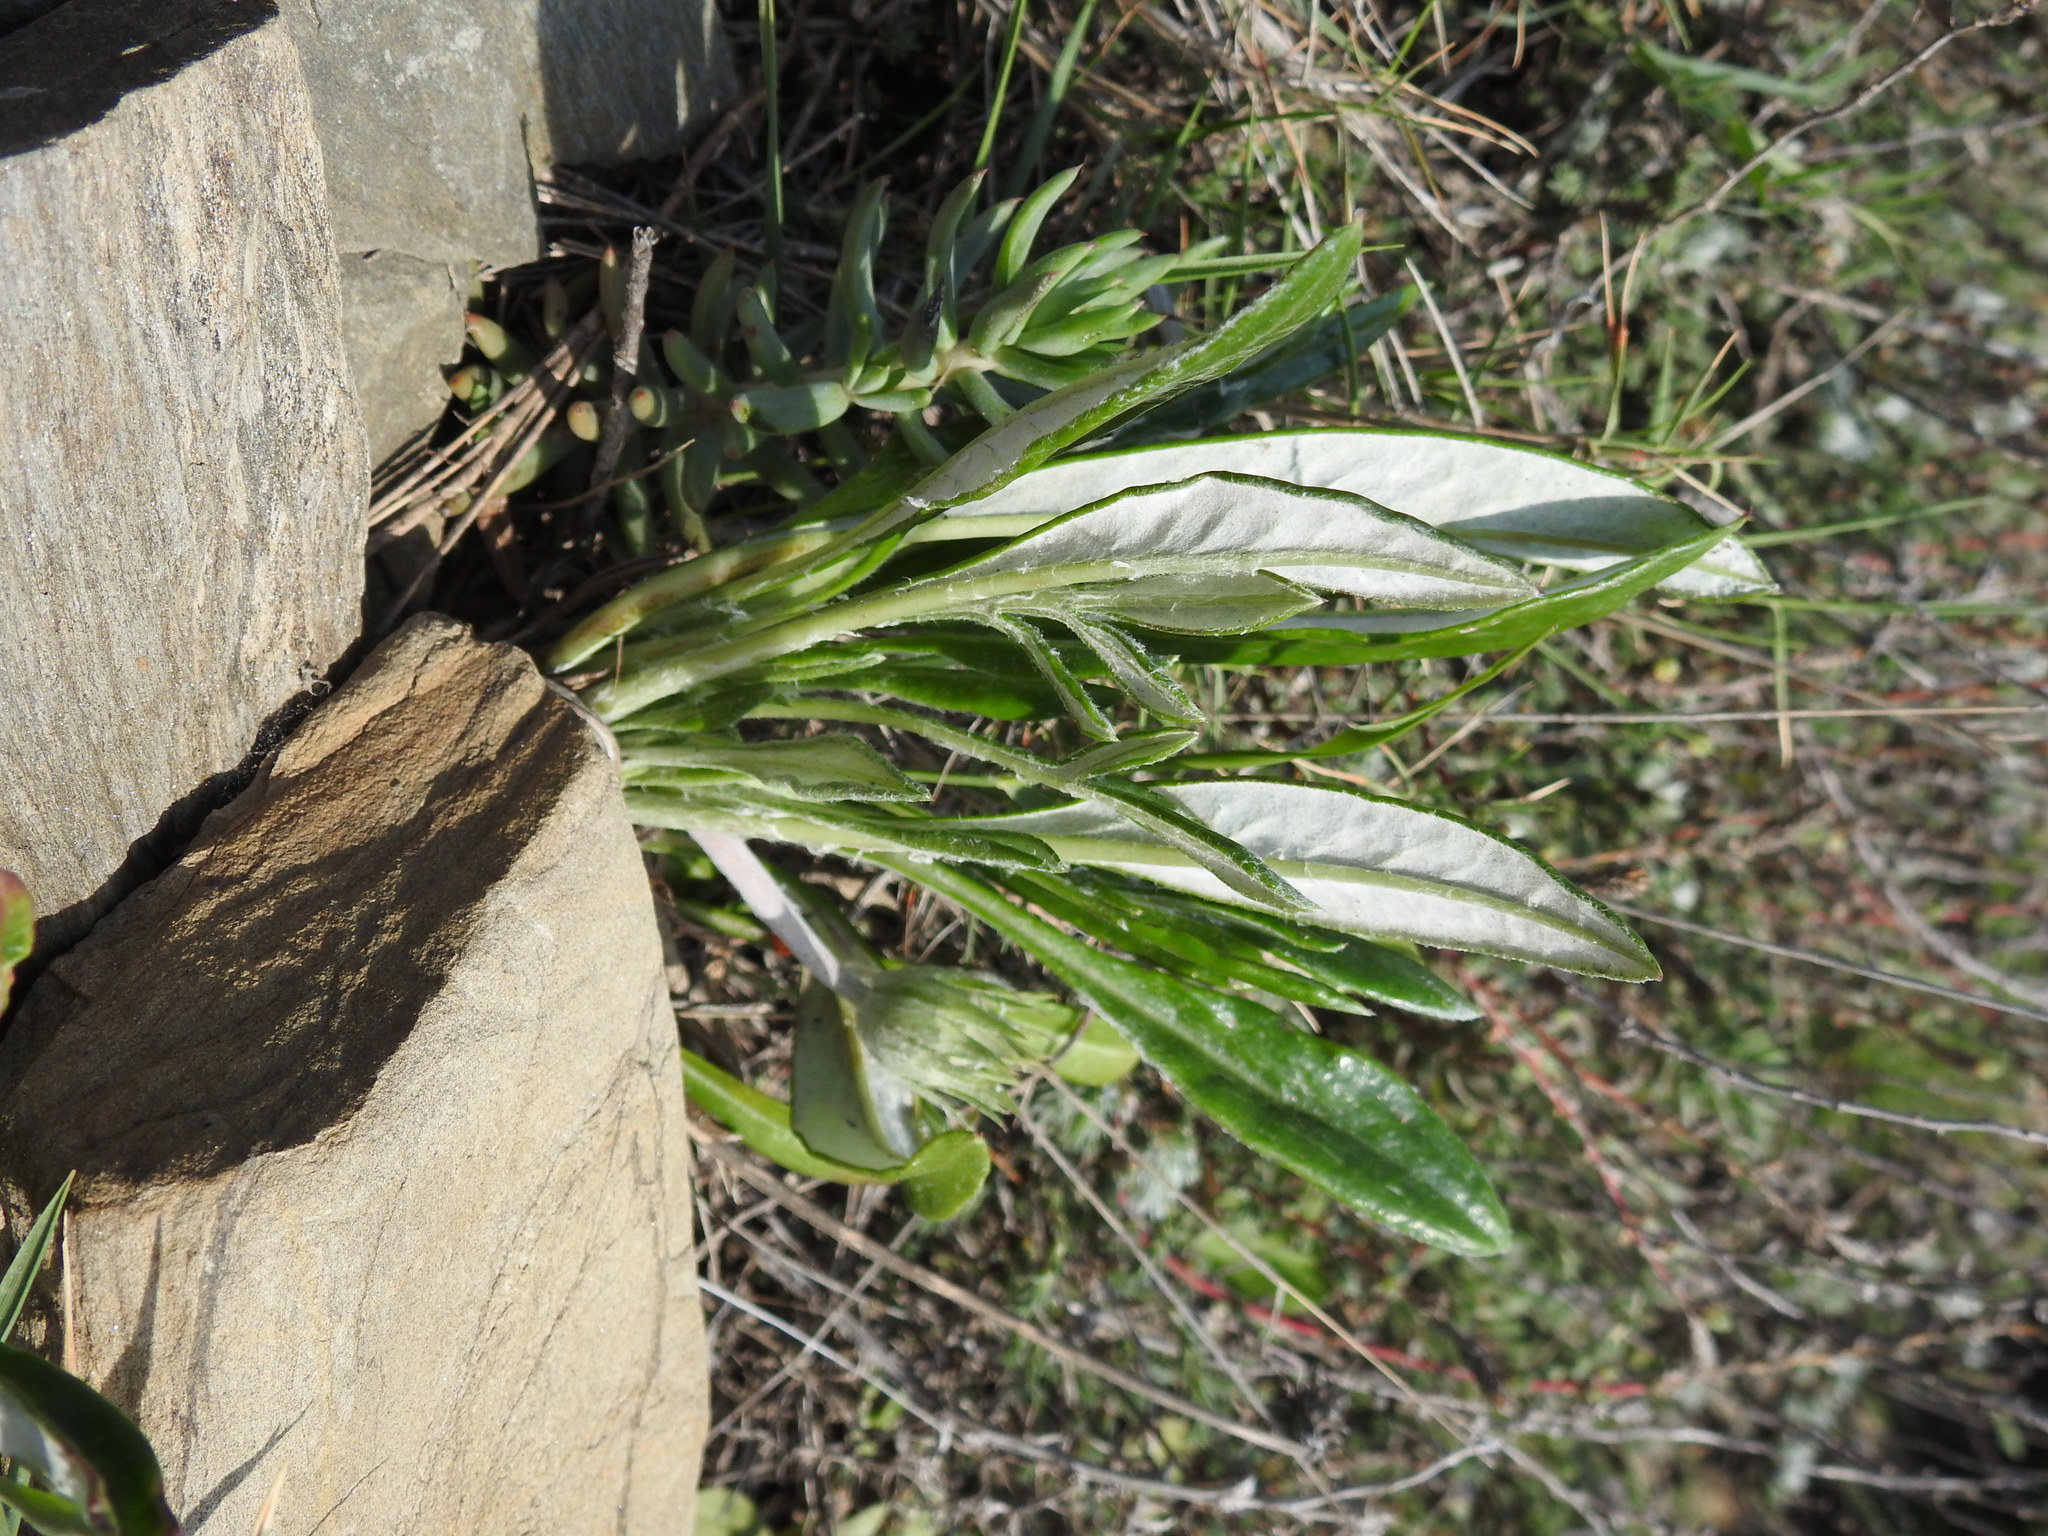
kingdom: Plantae
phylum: Tracheophyta
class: Magnoliopsida
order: Asterales
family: Asteraceae
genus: Gazania
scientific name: Gazania rigens
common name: Treasureflower
